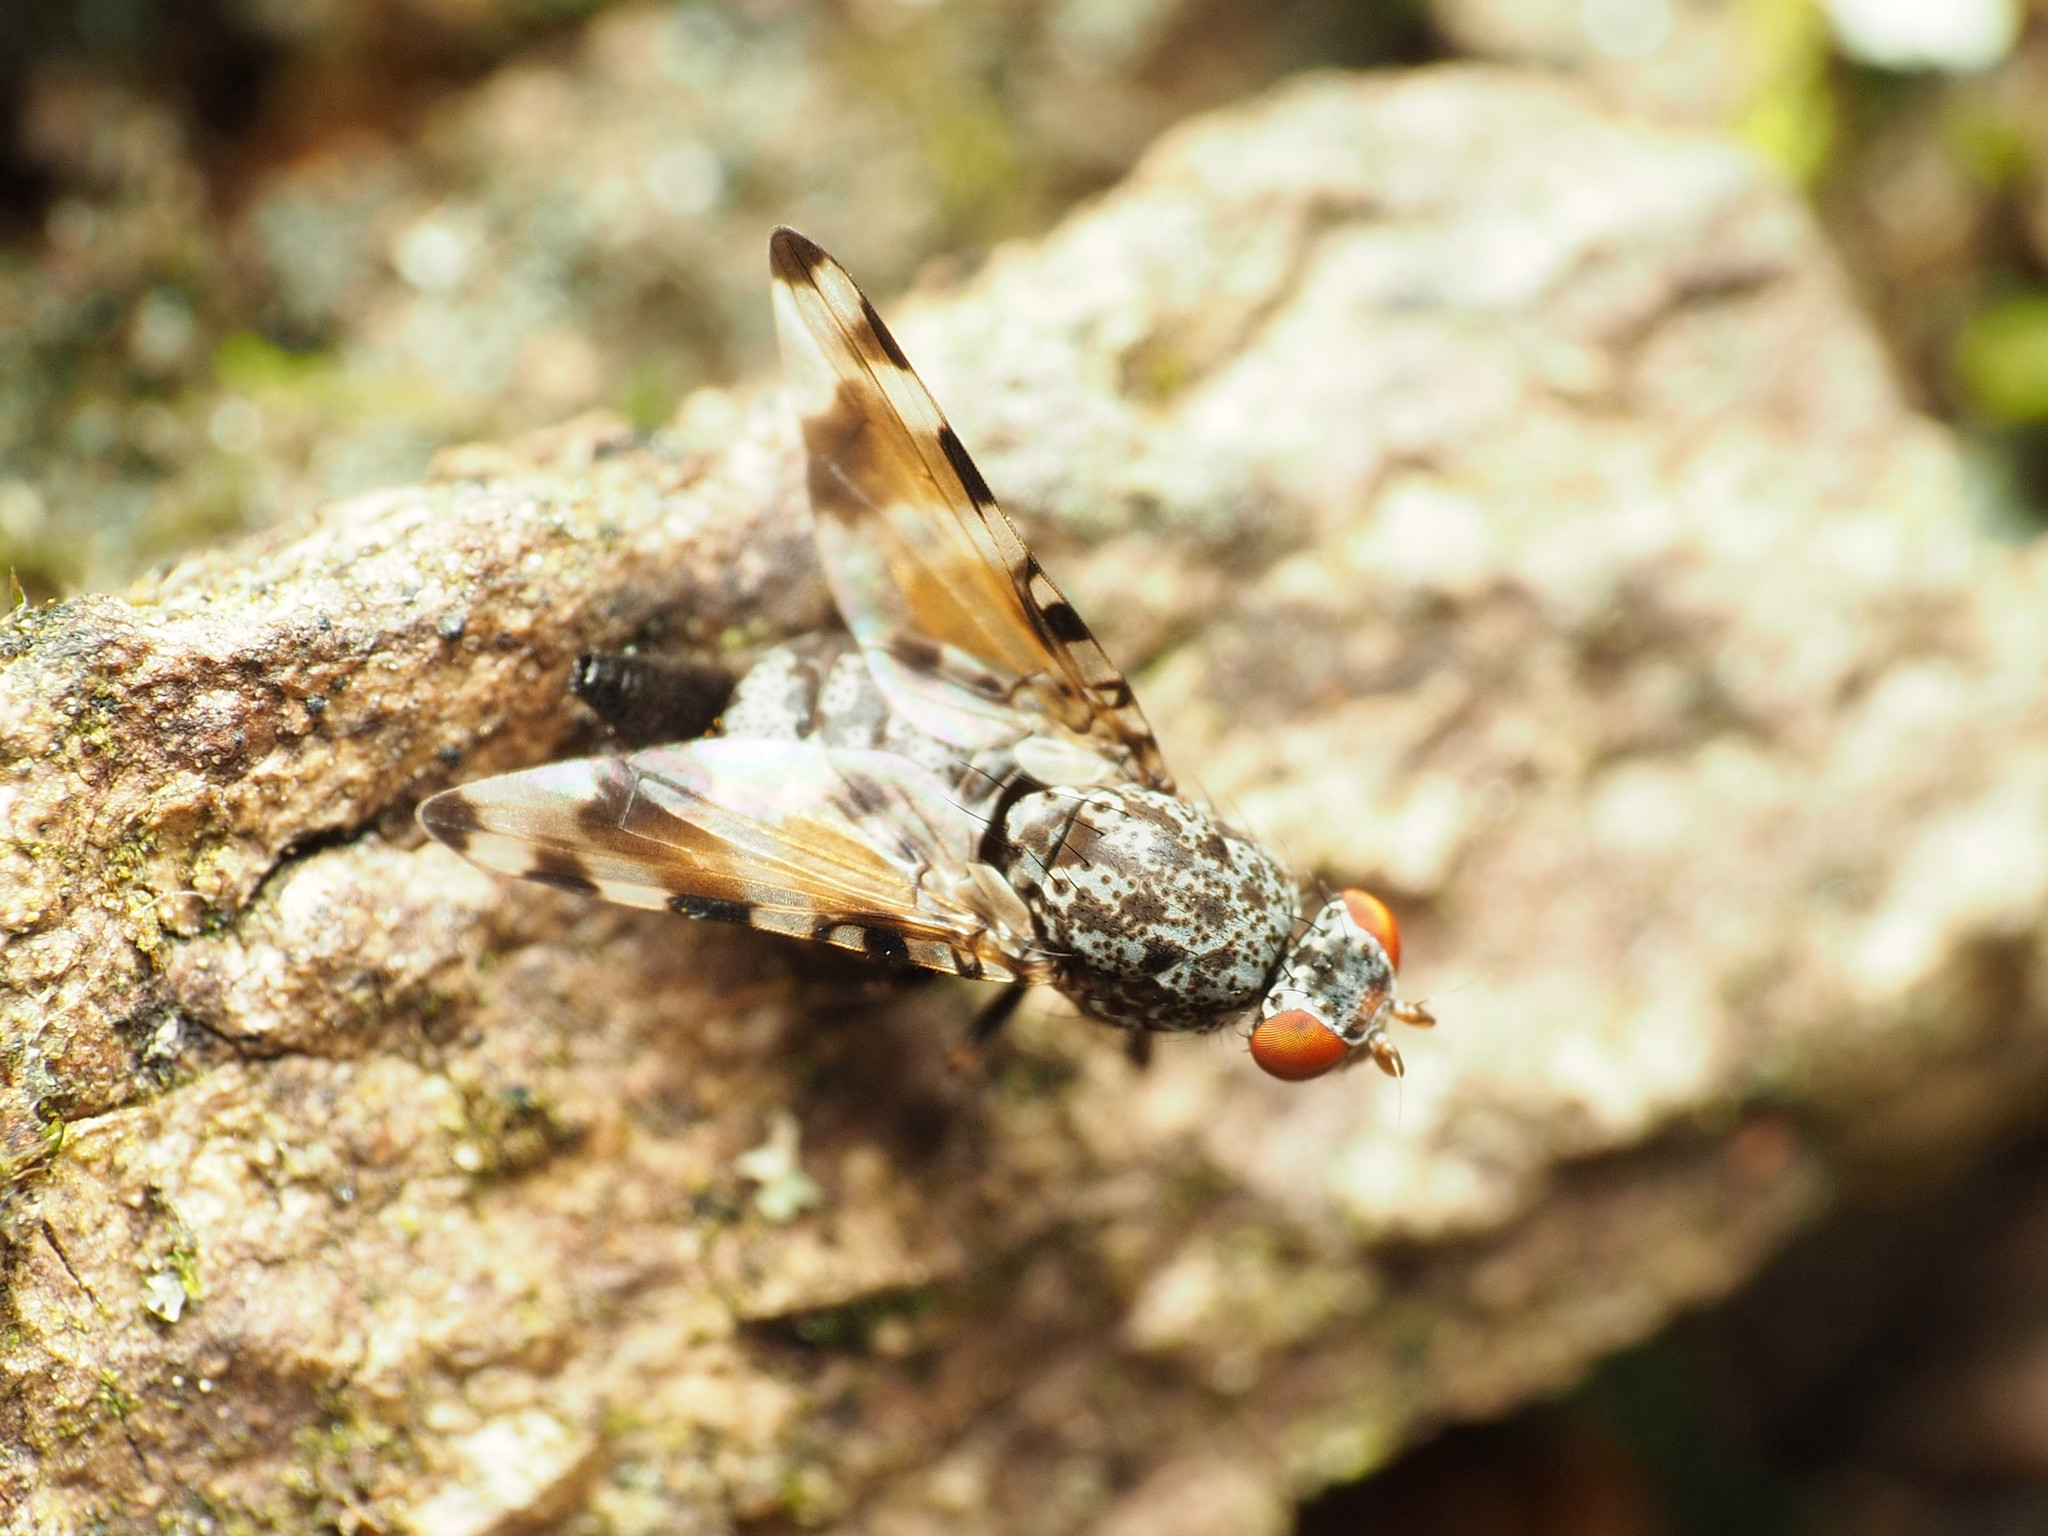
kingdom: Animalia
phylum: Arthropoda
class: Insecta
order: Diptera
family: Ulidiidae
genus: Pseudotephritis
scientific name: Pseudotephritis vau
